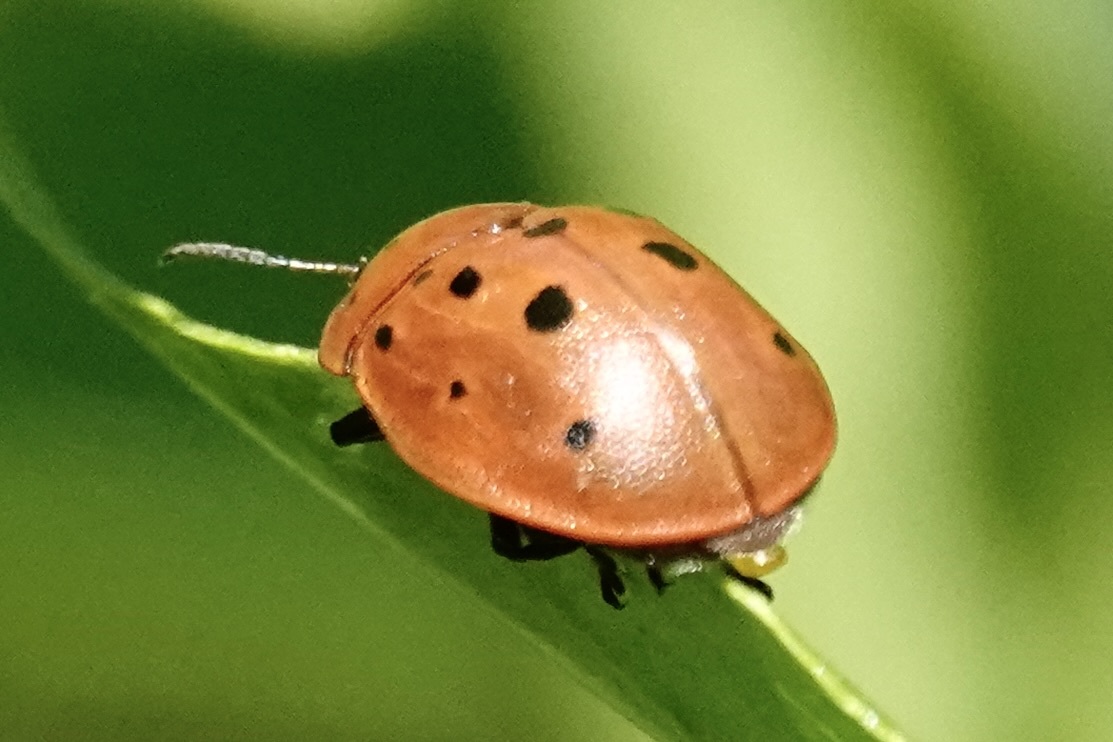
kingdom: Animalia
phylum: Arthropoda
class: Insecta
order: Coleoptera
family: Chrysomelidae
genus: Chelymorpha
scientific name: Chelymorpha cassidea
